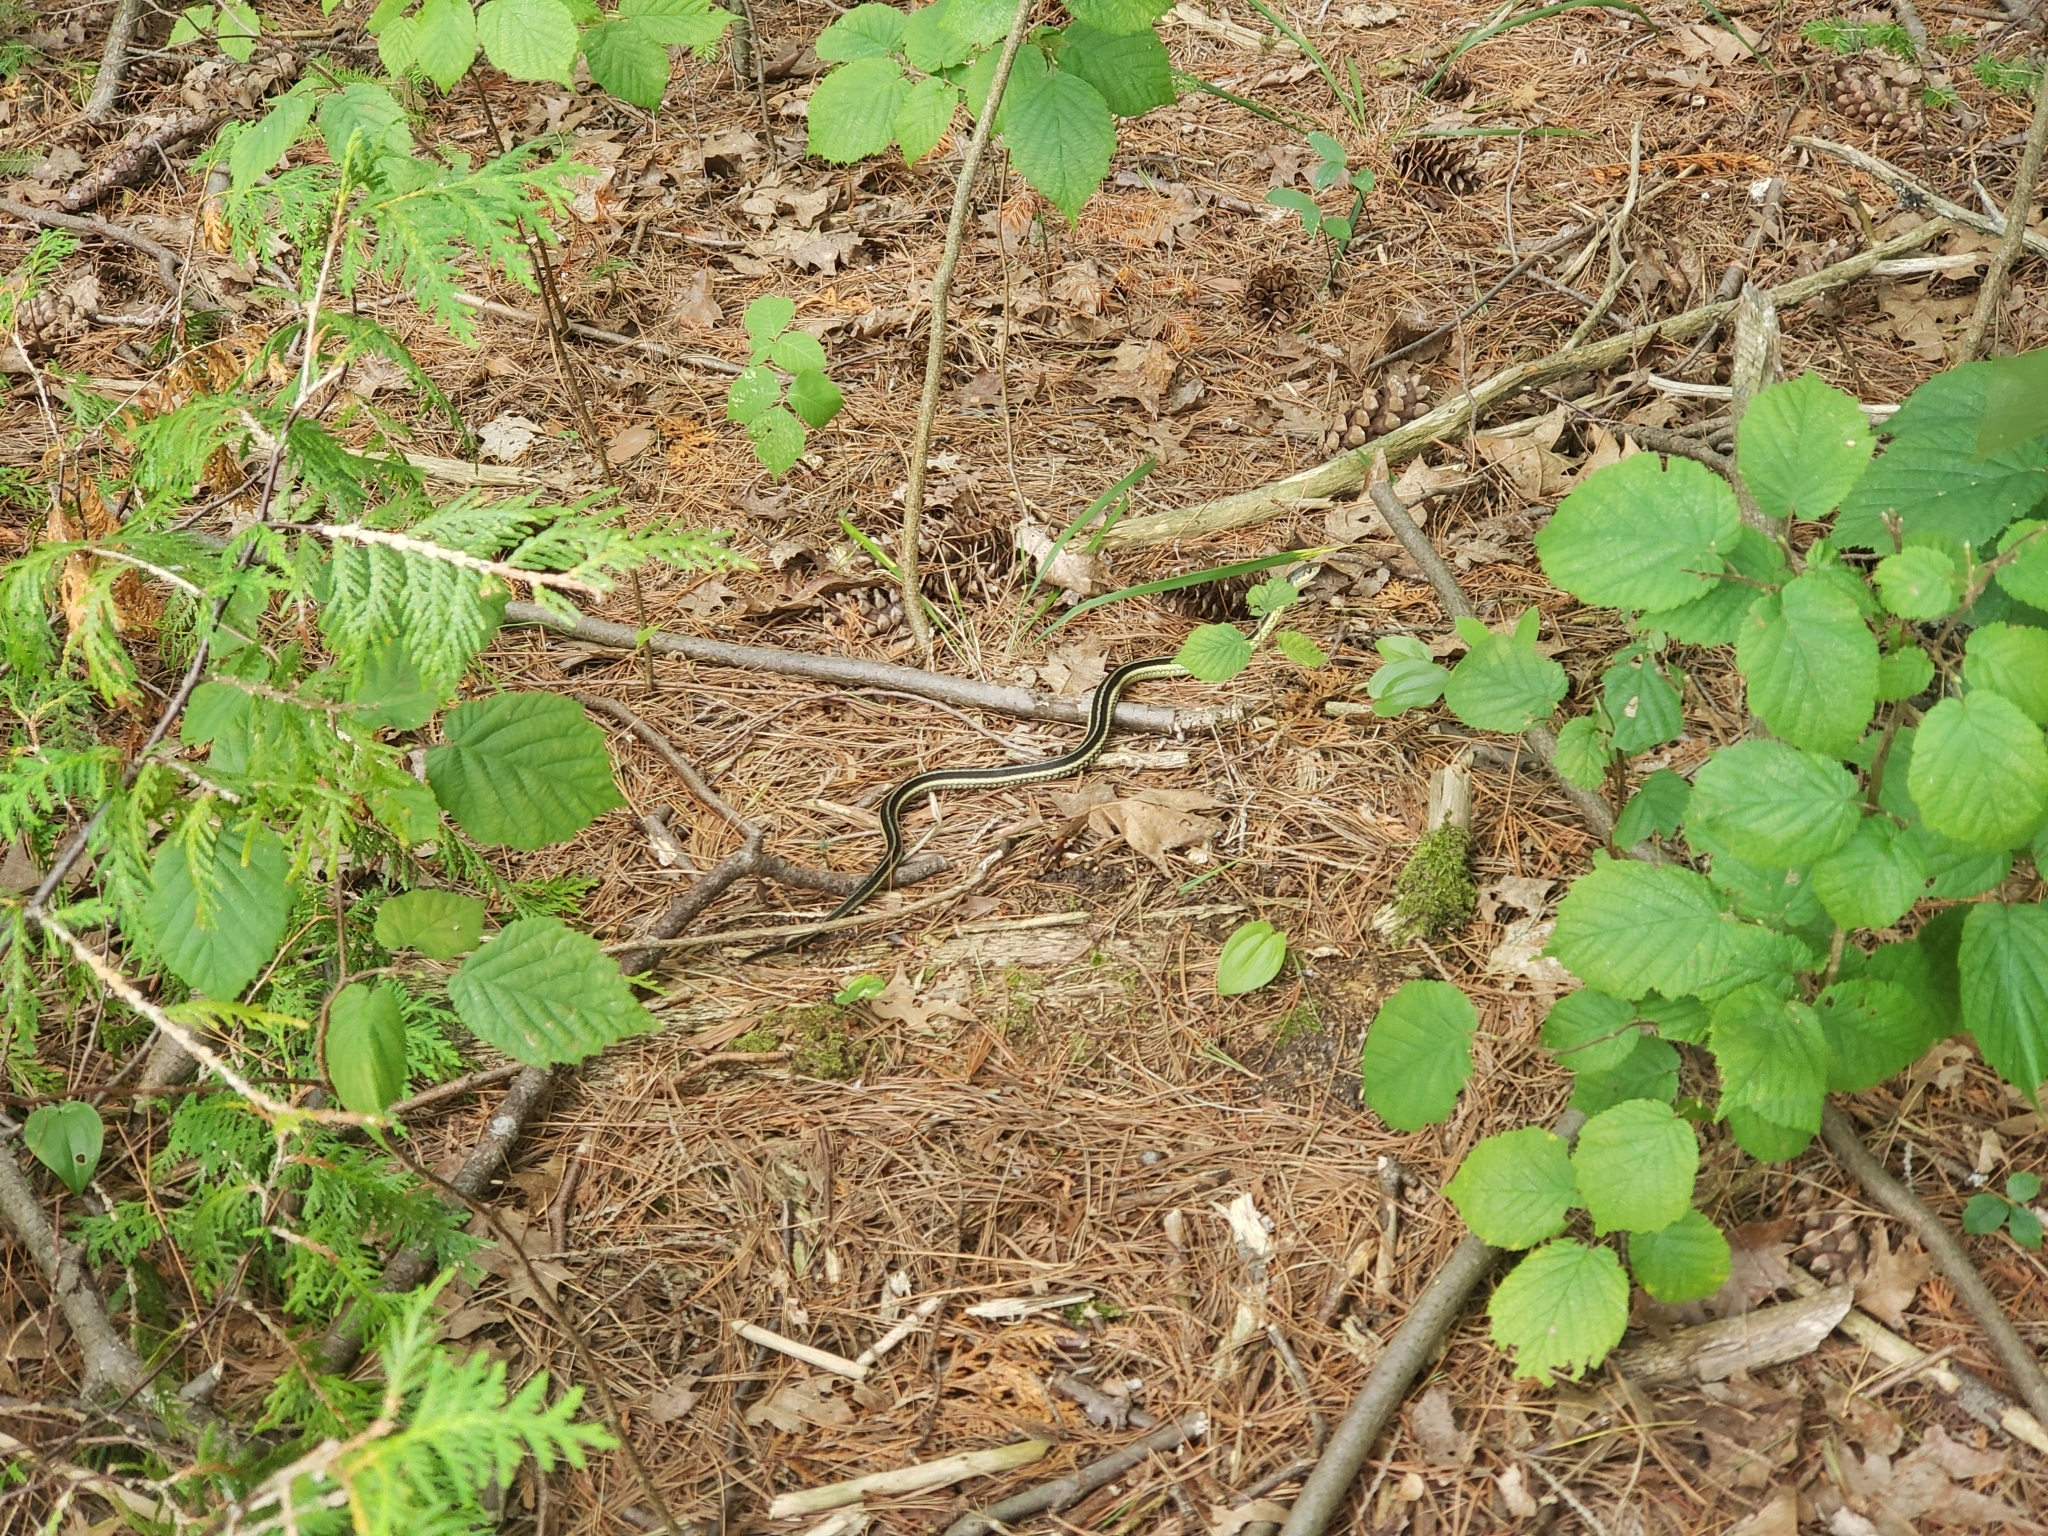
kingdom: Animalia
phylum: Chordata
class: Squamata
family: Colubridae
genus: Thamnophis
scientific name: Thamnophis sirtalis
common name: Common garter snake
